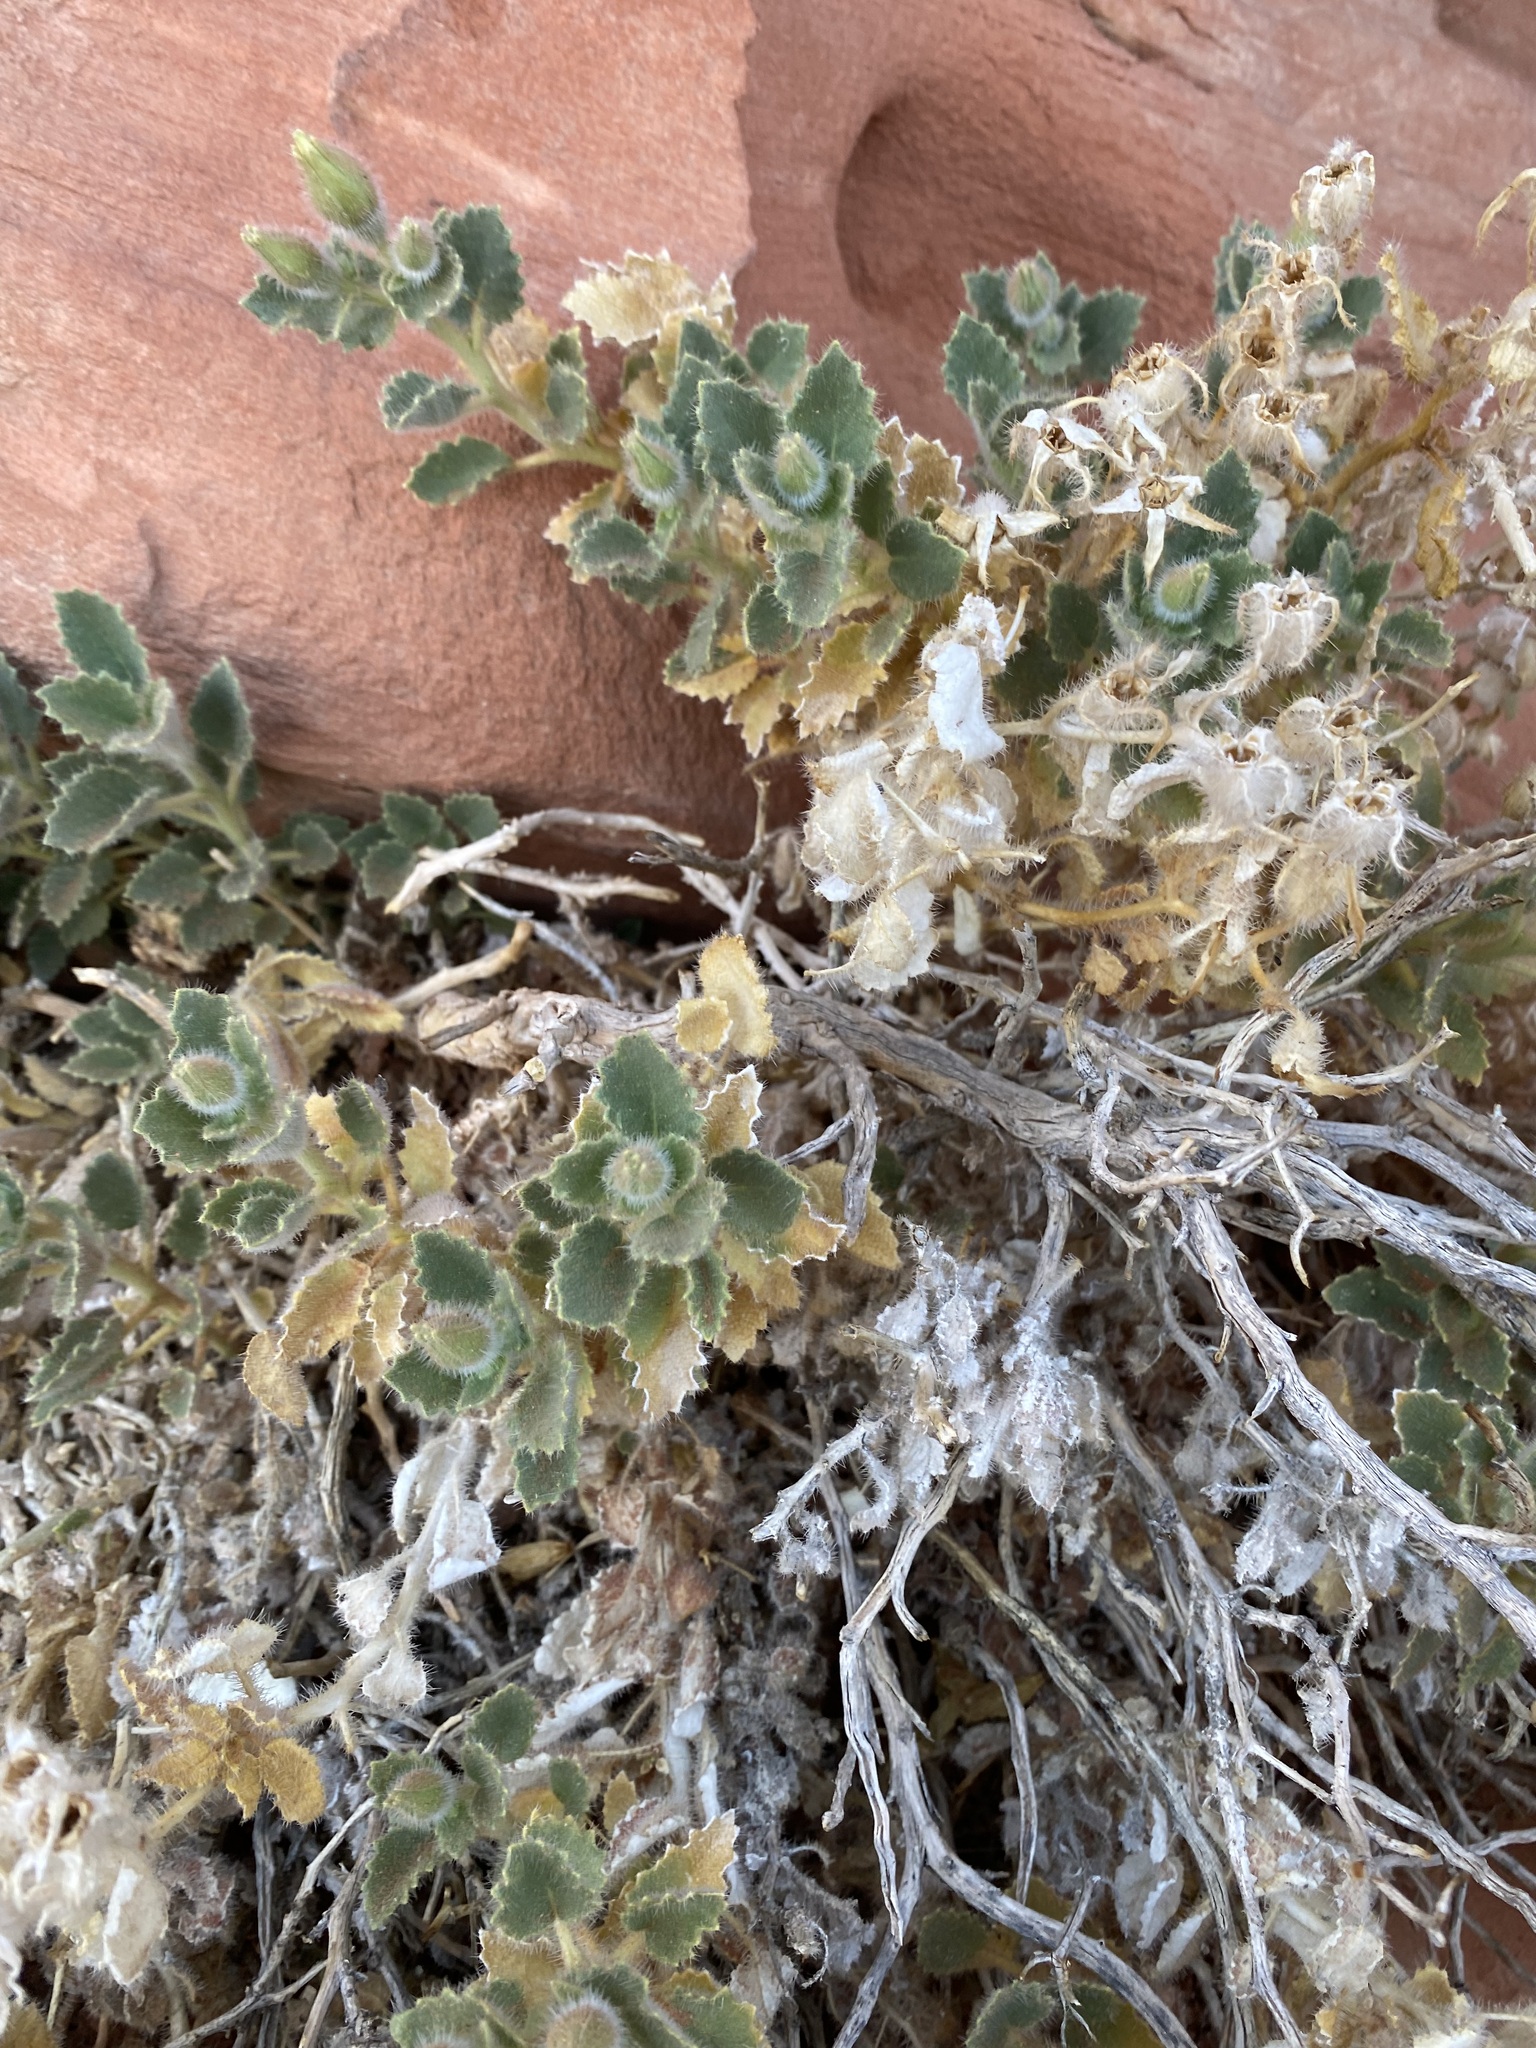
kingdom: Plantae
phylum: Tracheophyta
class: Magnoliopsida
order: Cornales
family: Loasaceae
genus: Eucnide
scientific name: Eucnide urens
